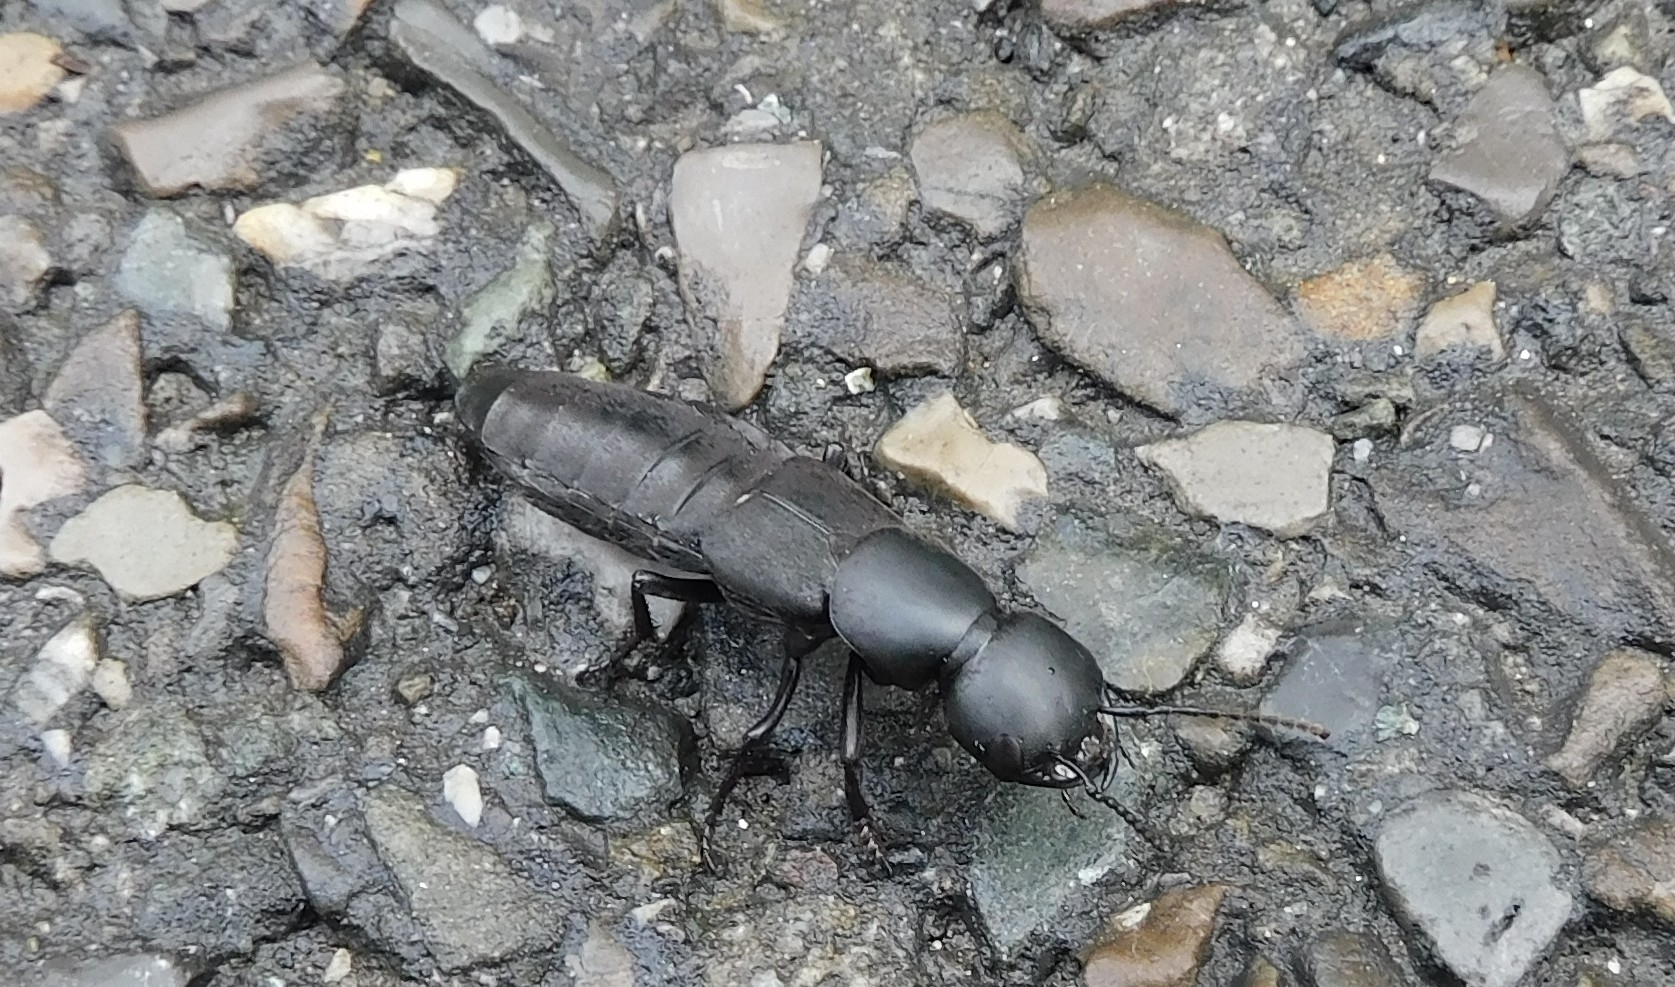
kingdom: Animalia
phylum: Arthropoda
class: Insecta
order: Coleoptera
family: Staphylinidae
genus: Ocypus
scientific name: Ocypus olens
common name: Devil's coach-horse
